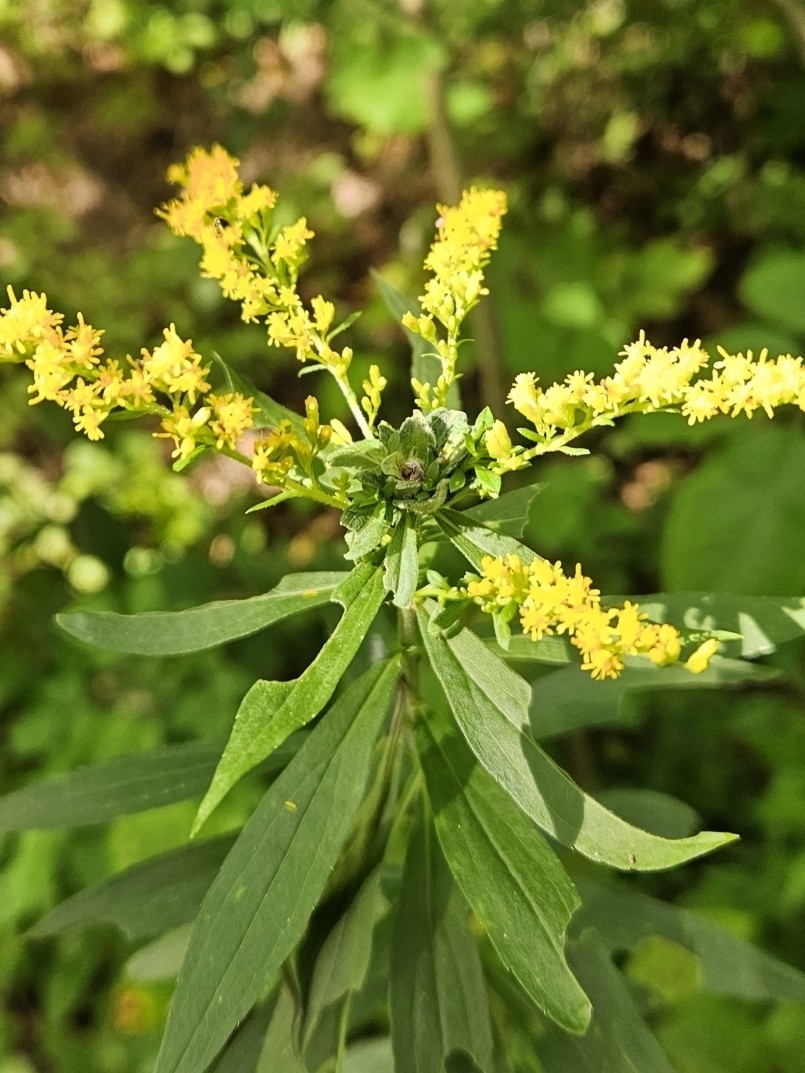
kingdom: Animalia
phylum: Arthropoda
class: Insecta
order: Diptera
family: Cecidomyiidae
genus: Asphondylia
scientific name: Asphondylia solidaginis
